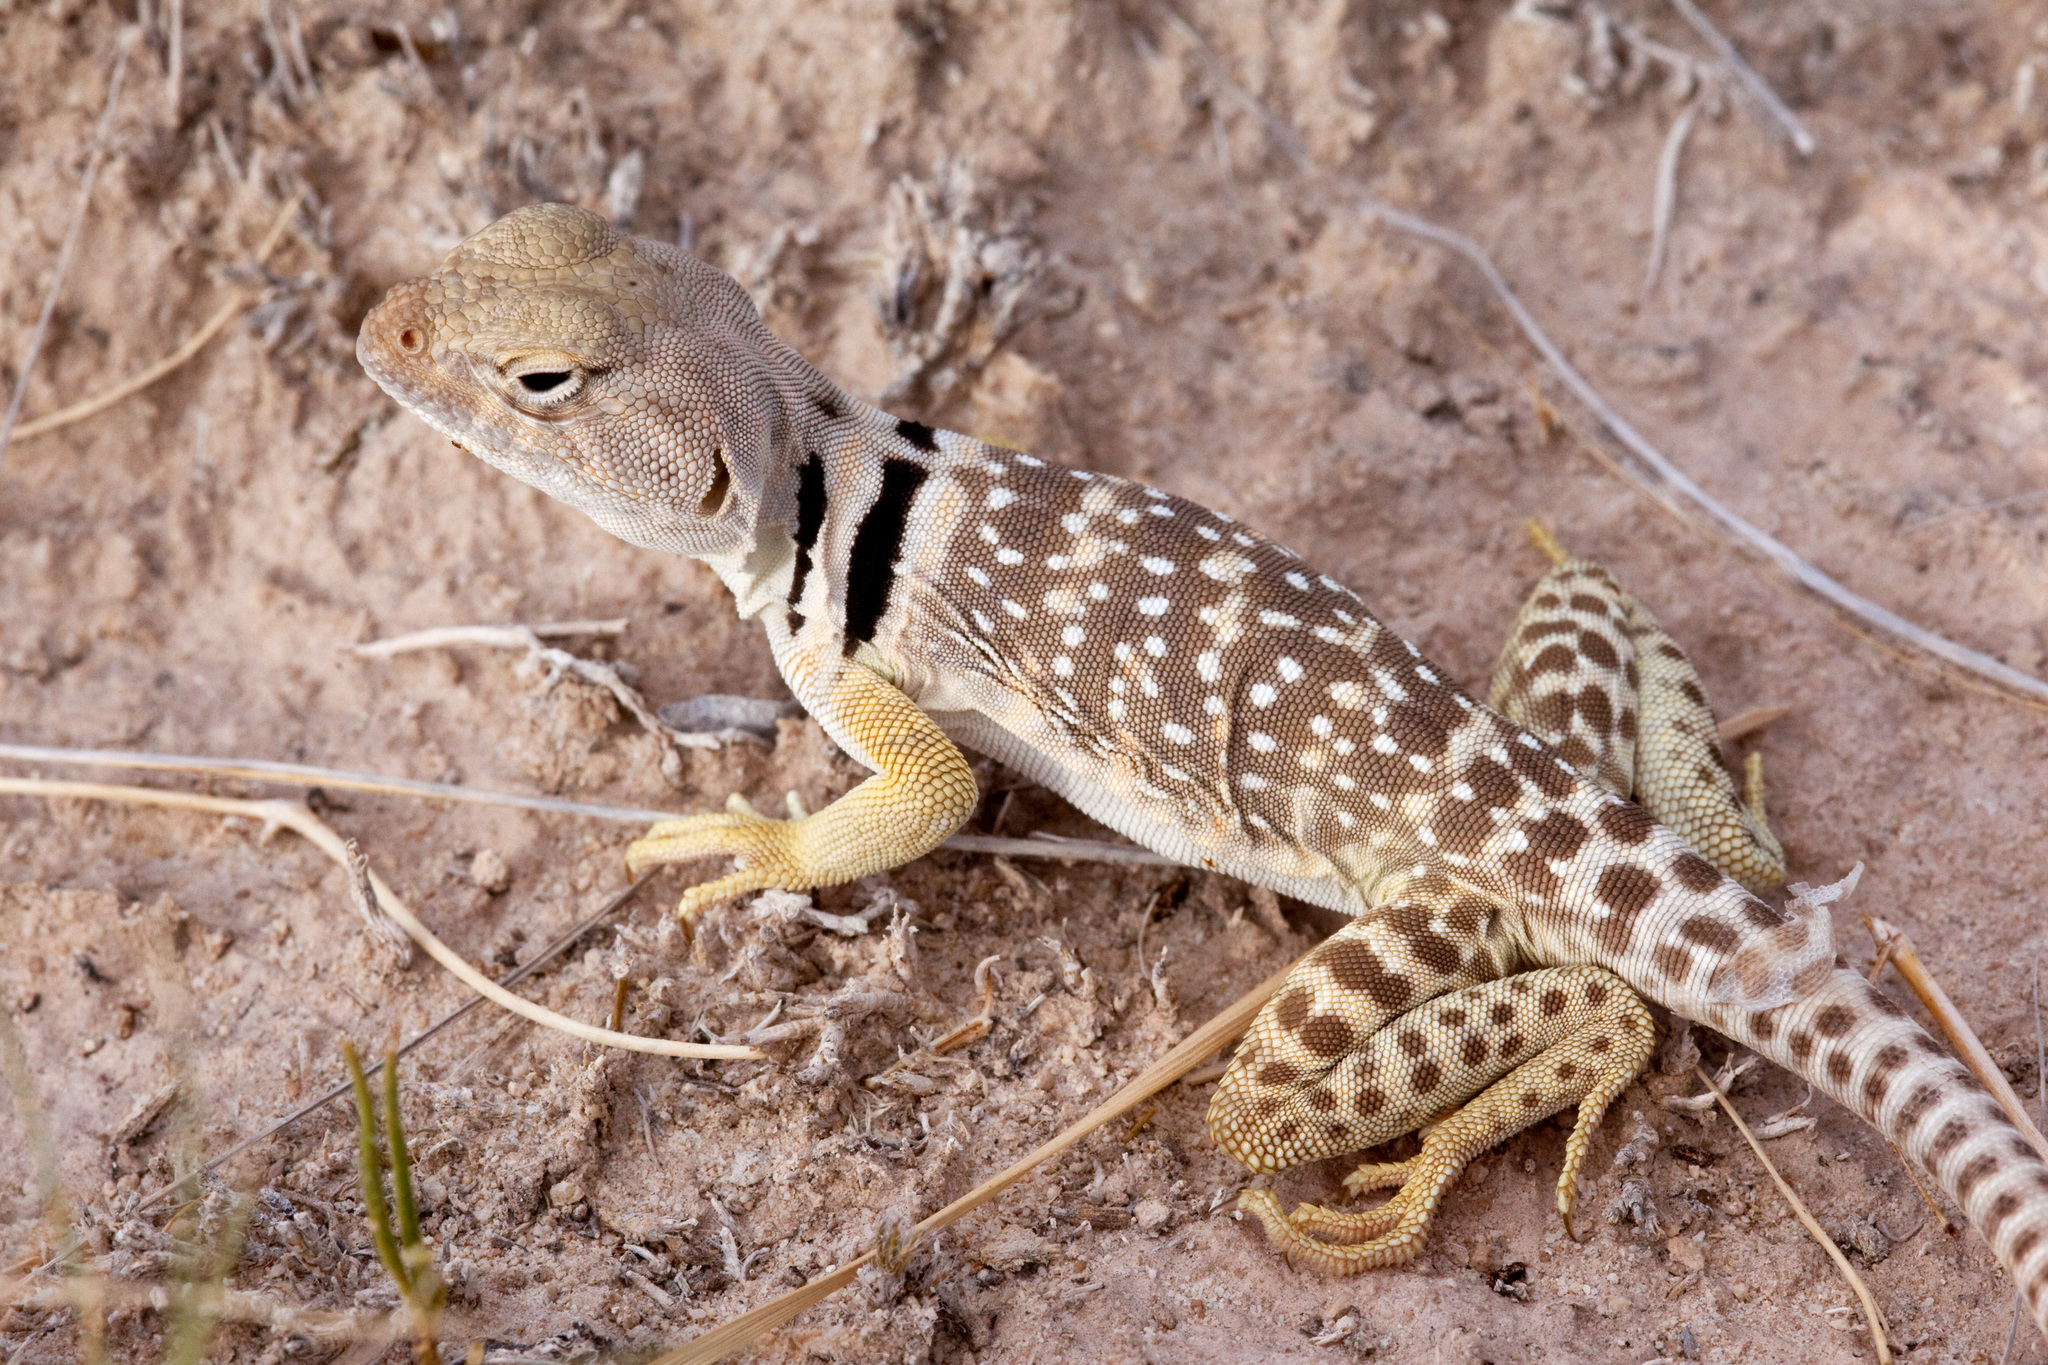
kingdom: Animalia
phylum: Chordata
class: Squamata
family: Crotaphytidae
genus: Crotaphytus
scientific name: Crotaphytus collaris
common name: Collared lizard
